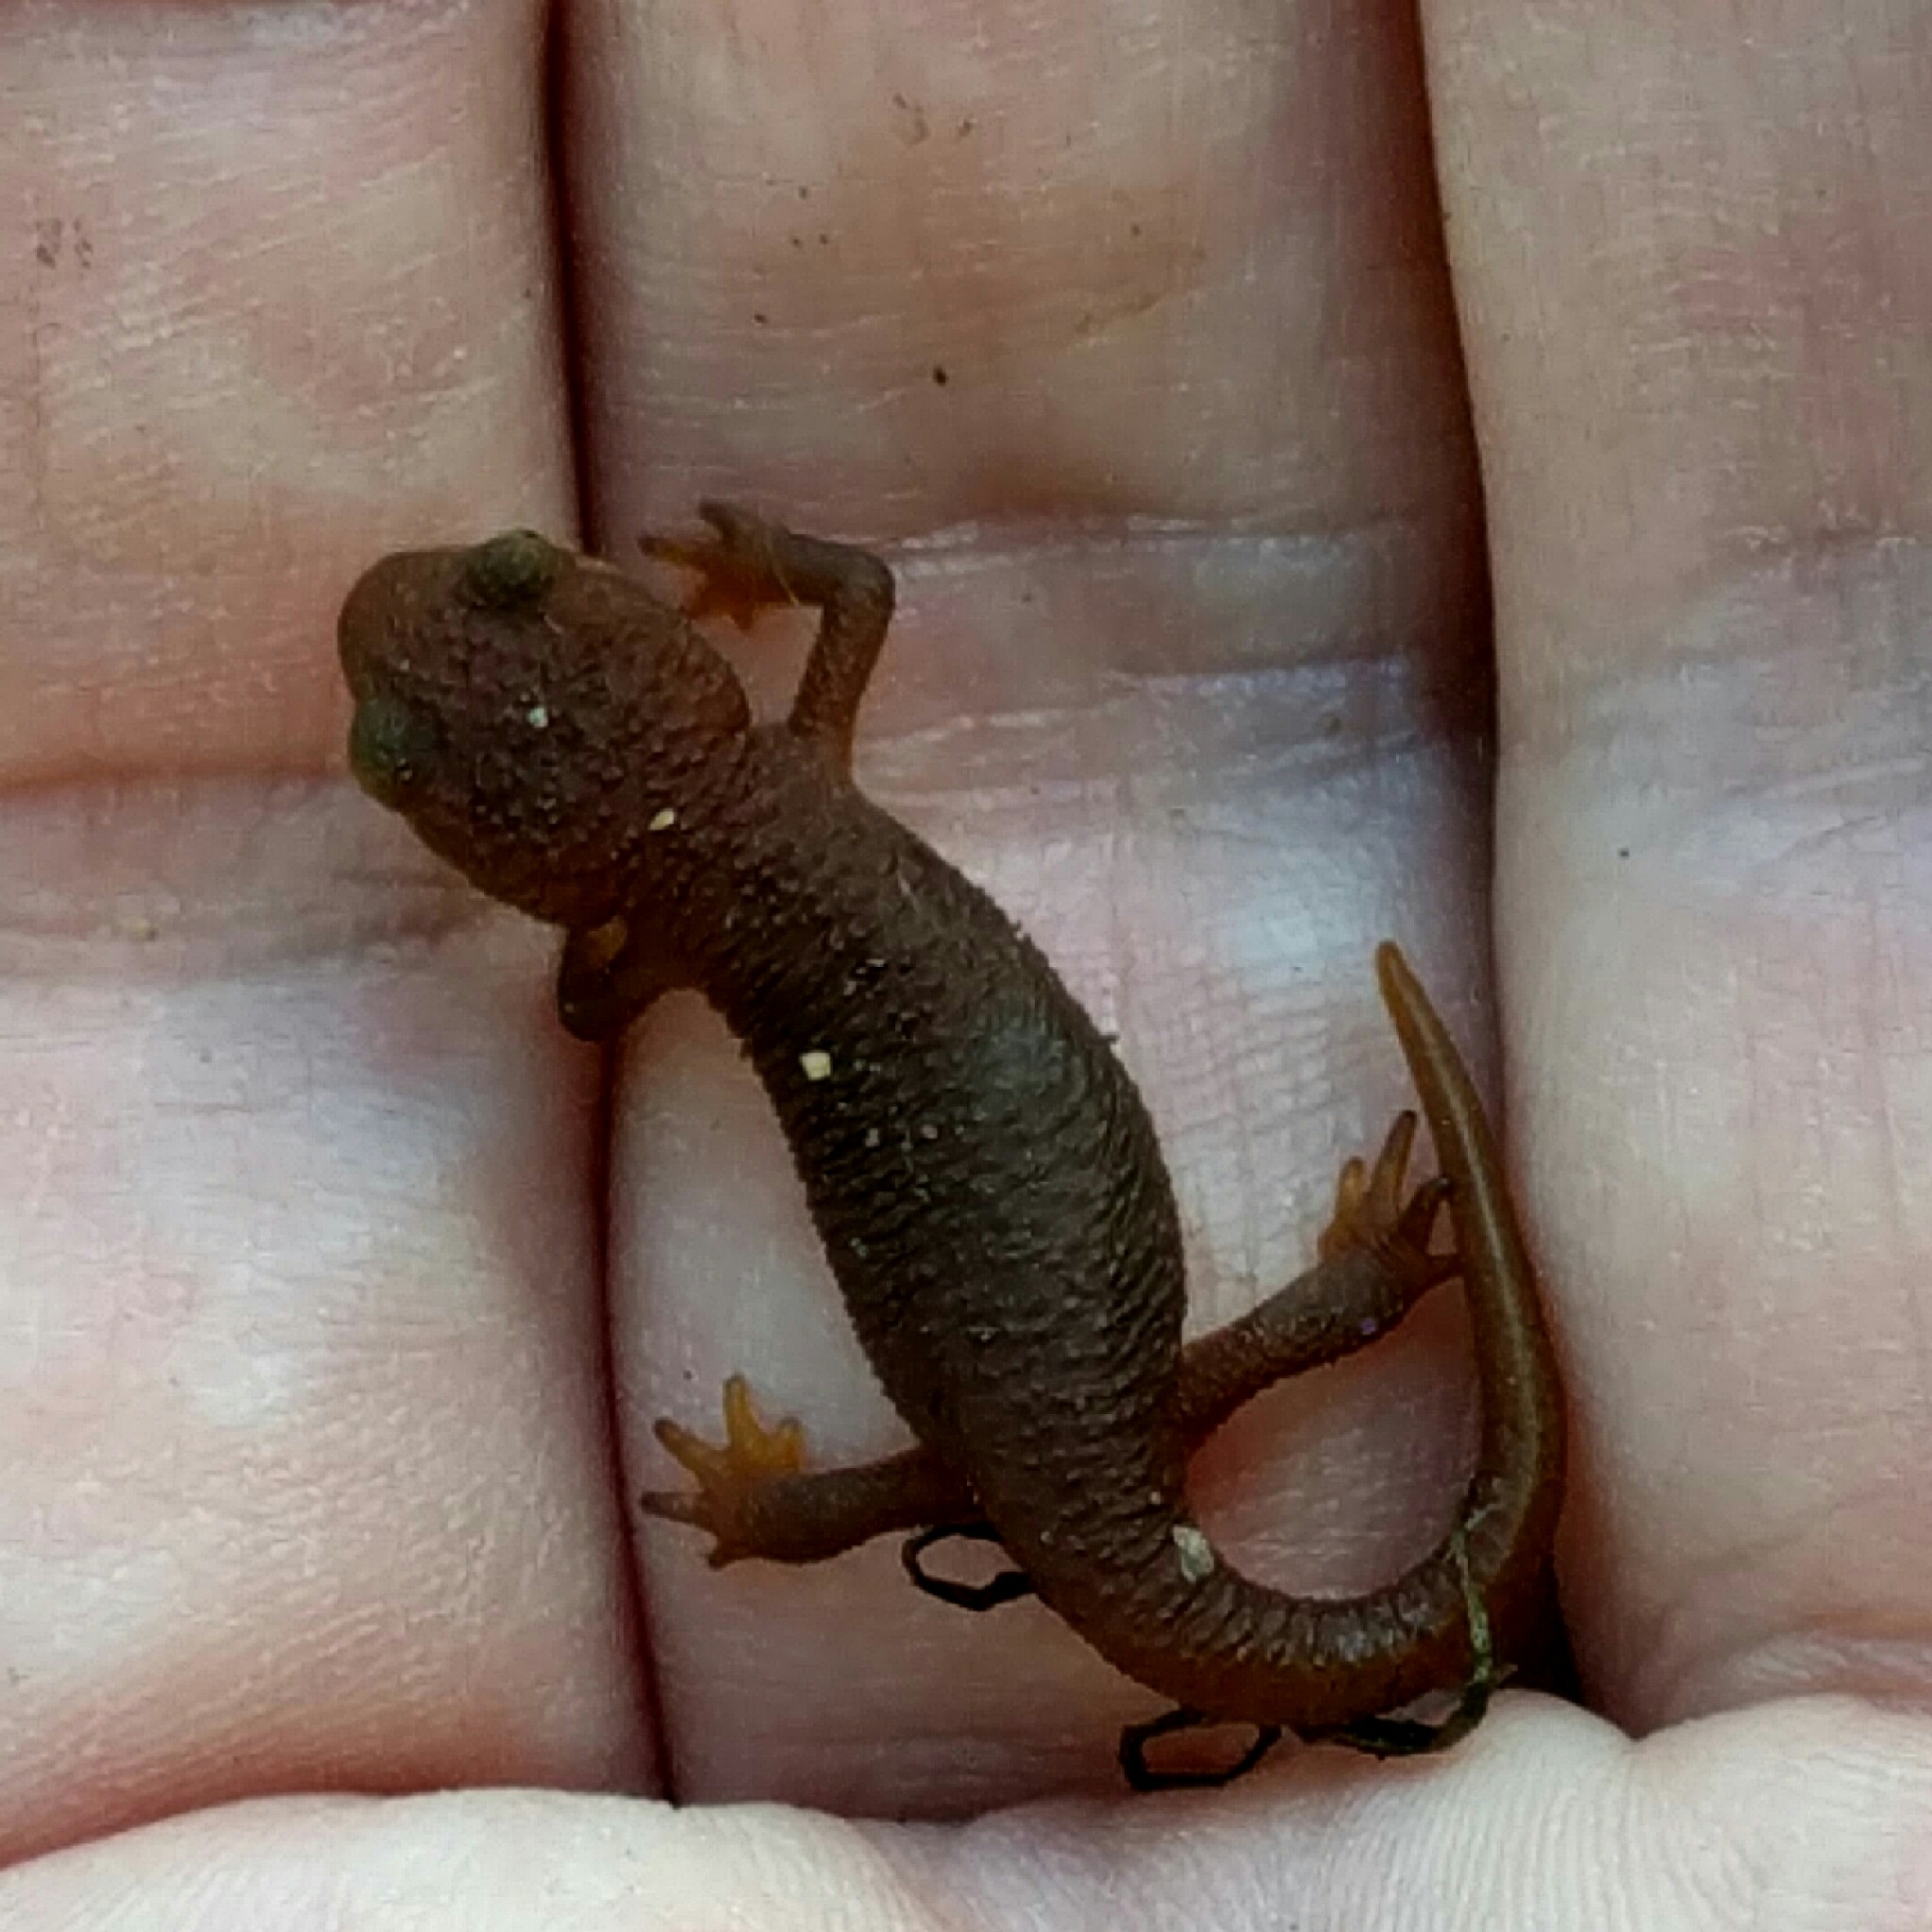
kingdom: Animalia
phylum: Chordata
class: Amphibia
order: Caudata
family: Salamandridae
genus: Taricha
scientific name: Taricha torosa
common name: California newt
